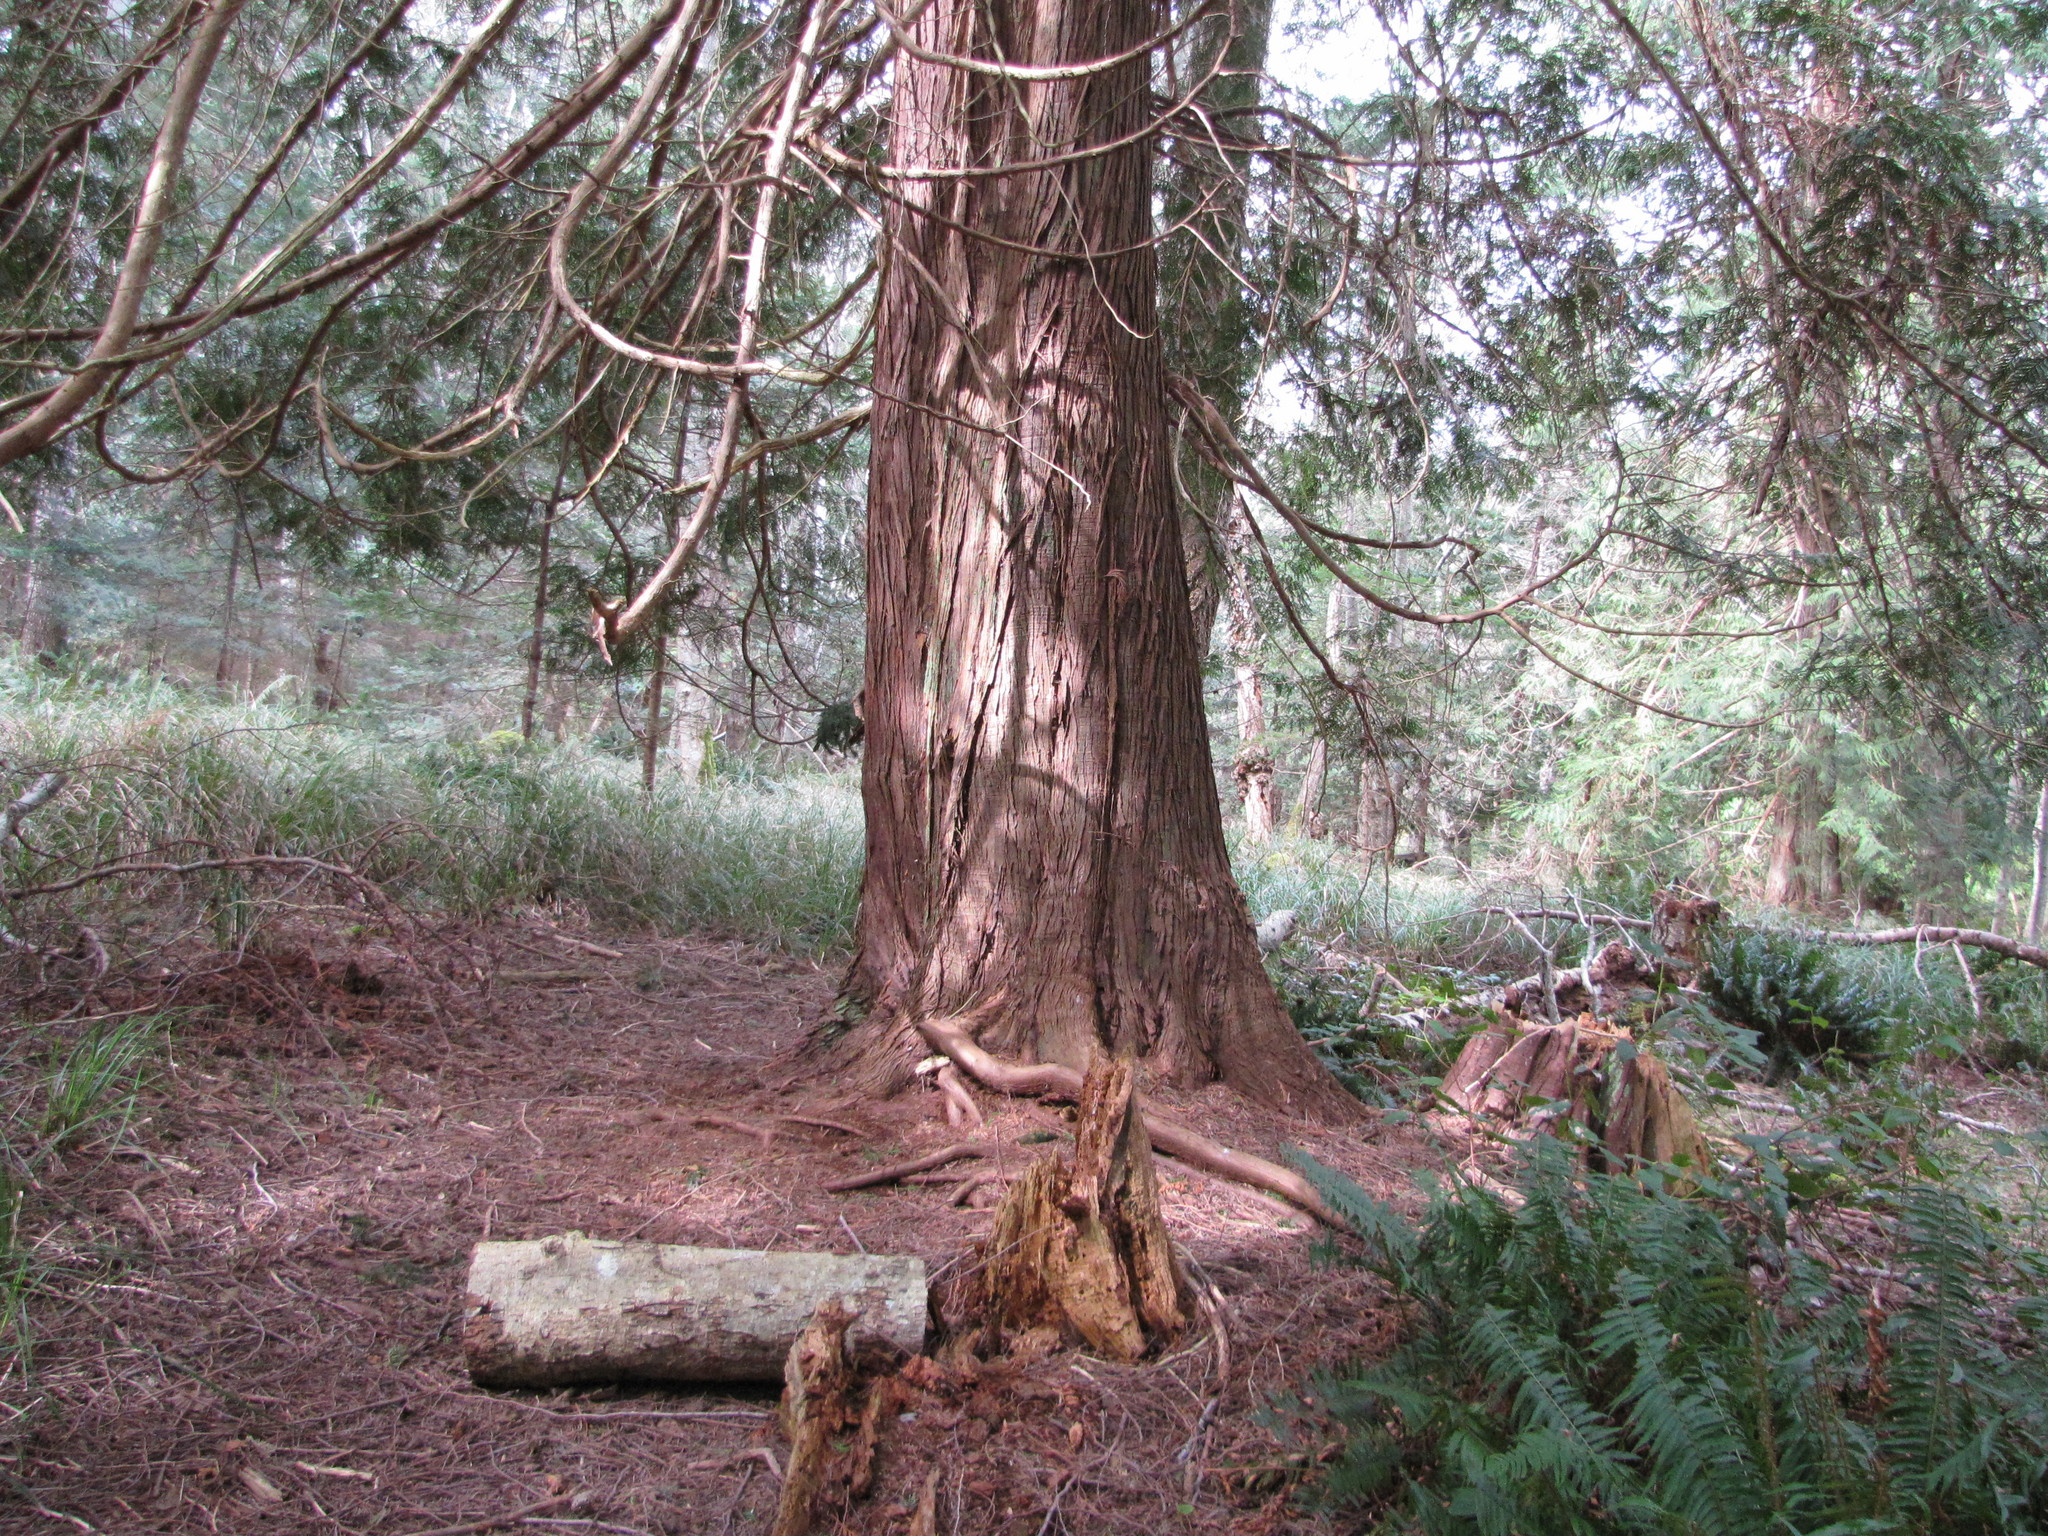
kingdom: Plantae
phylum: Tracheophyta
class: Pinopsida
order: Pinales
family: Cupressaceae
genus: Thuja
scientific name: Thuja plicata
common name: Western red-cedar
